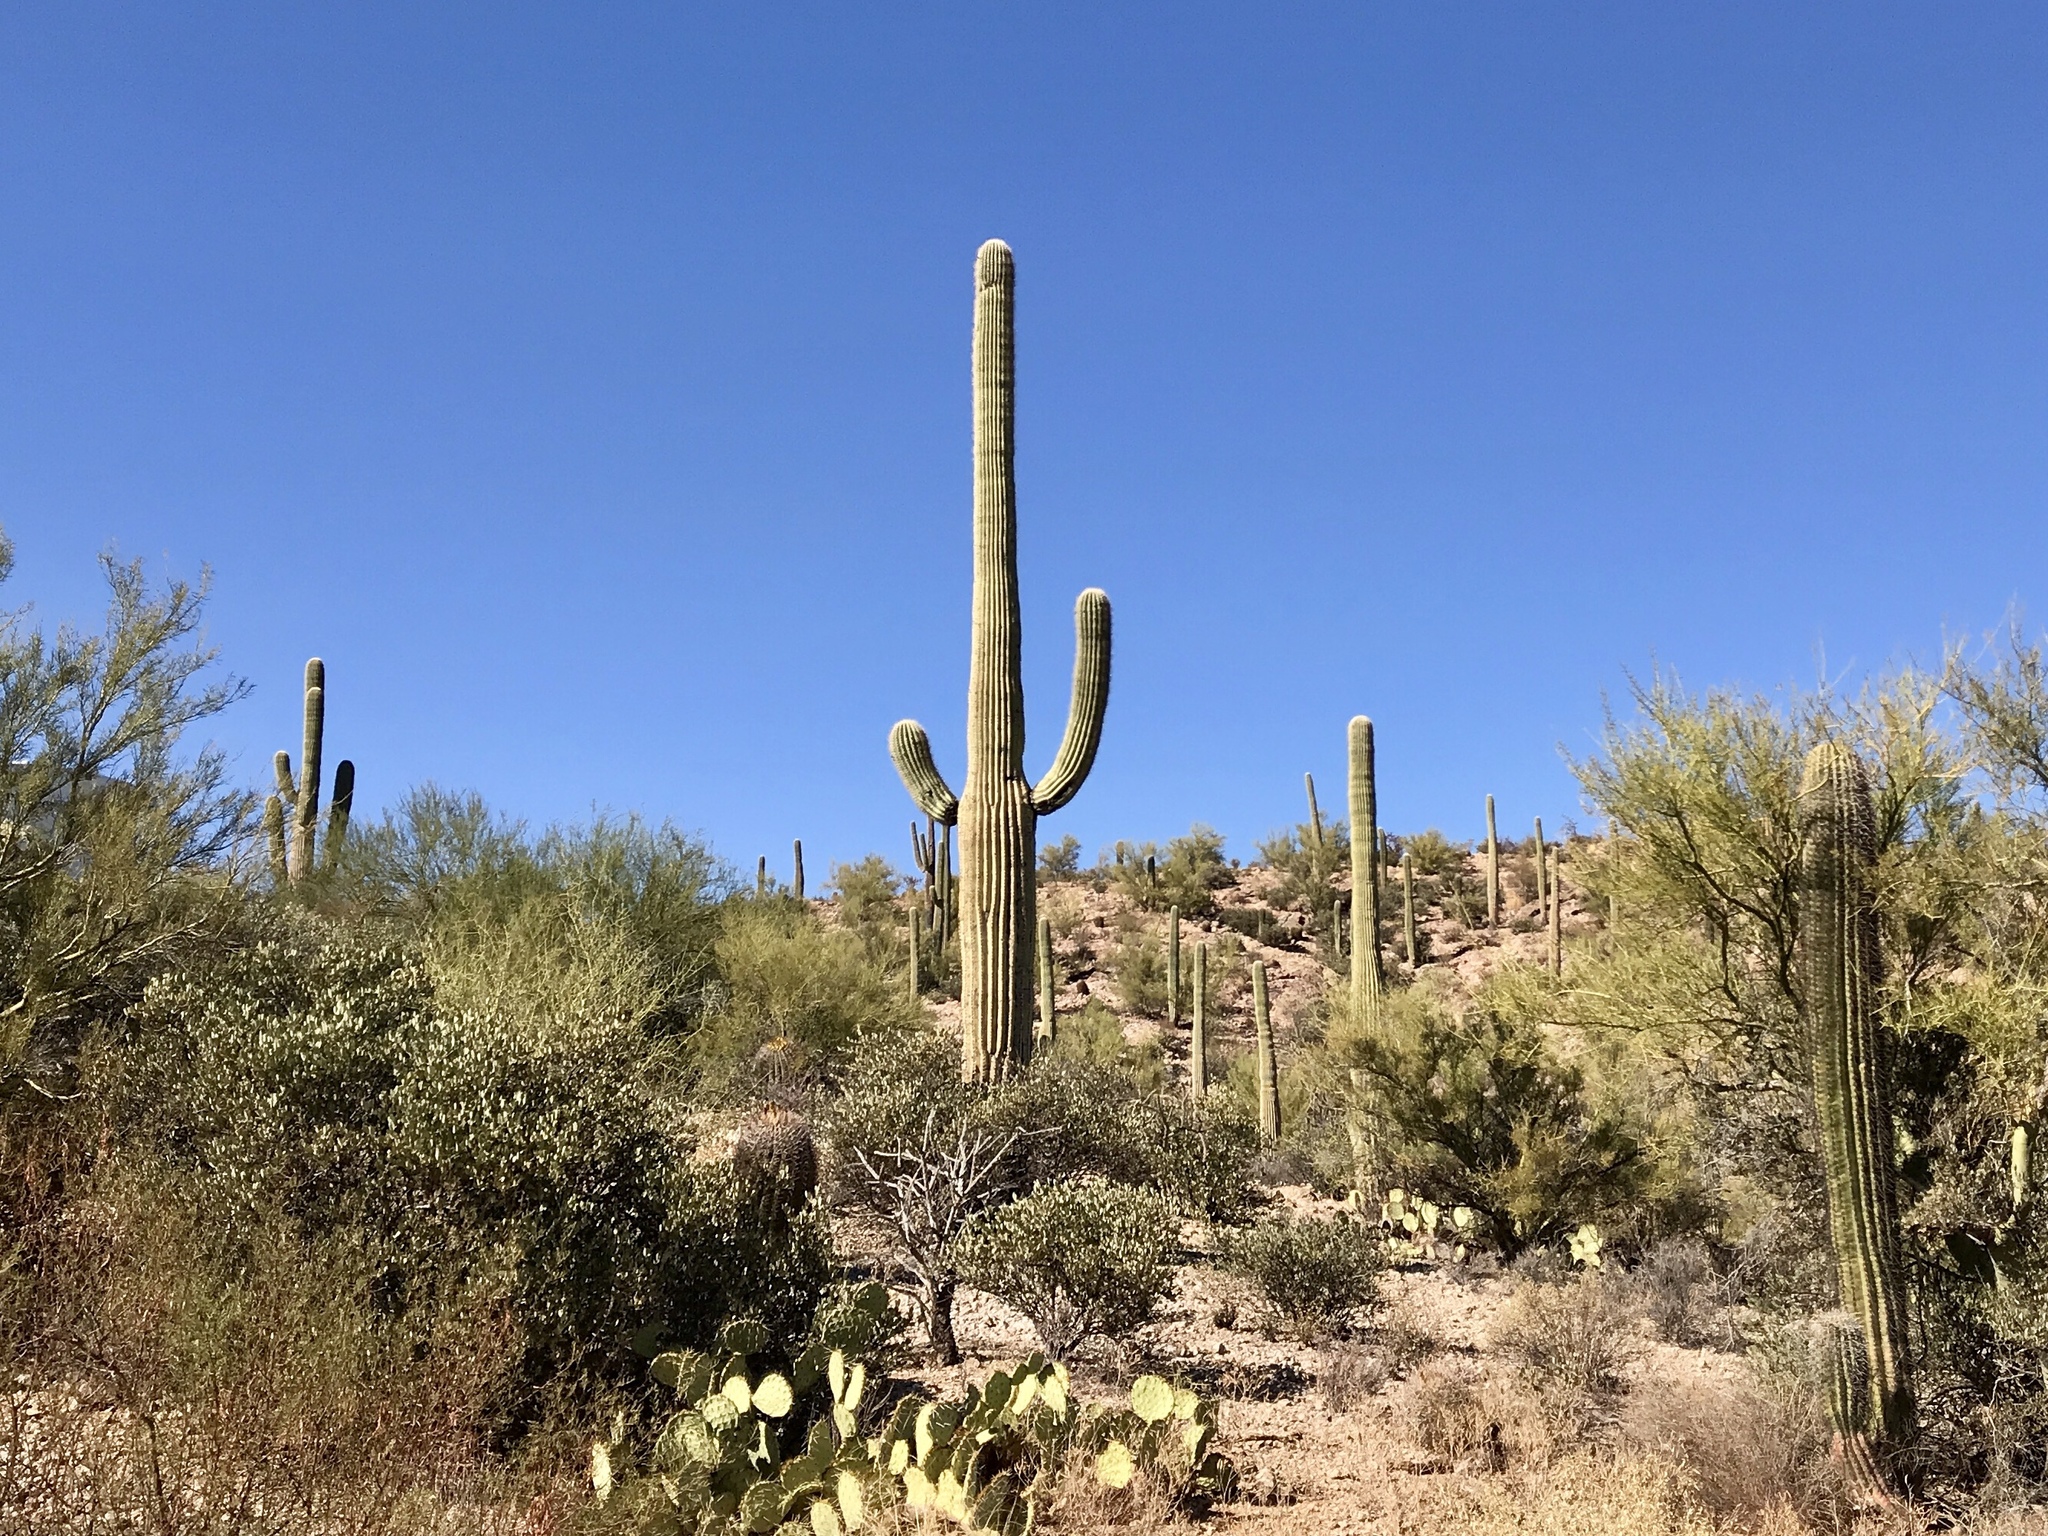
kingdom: Plantae
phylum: Tracheophyta
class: Magnoliopsida
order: Caryophyllales
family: Cactaceae
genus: Carnegiea
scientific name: Carnegiea gigantea
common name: Saguaro
